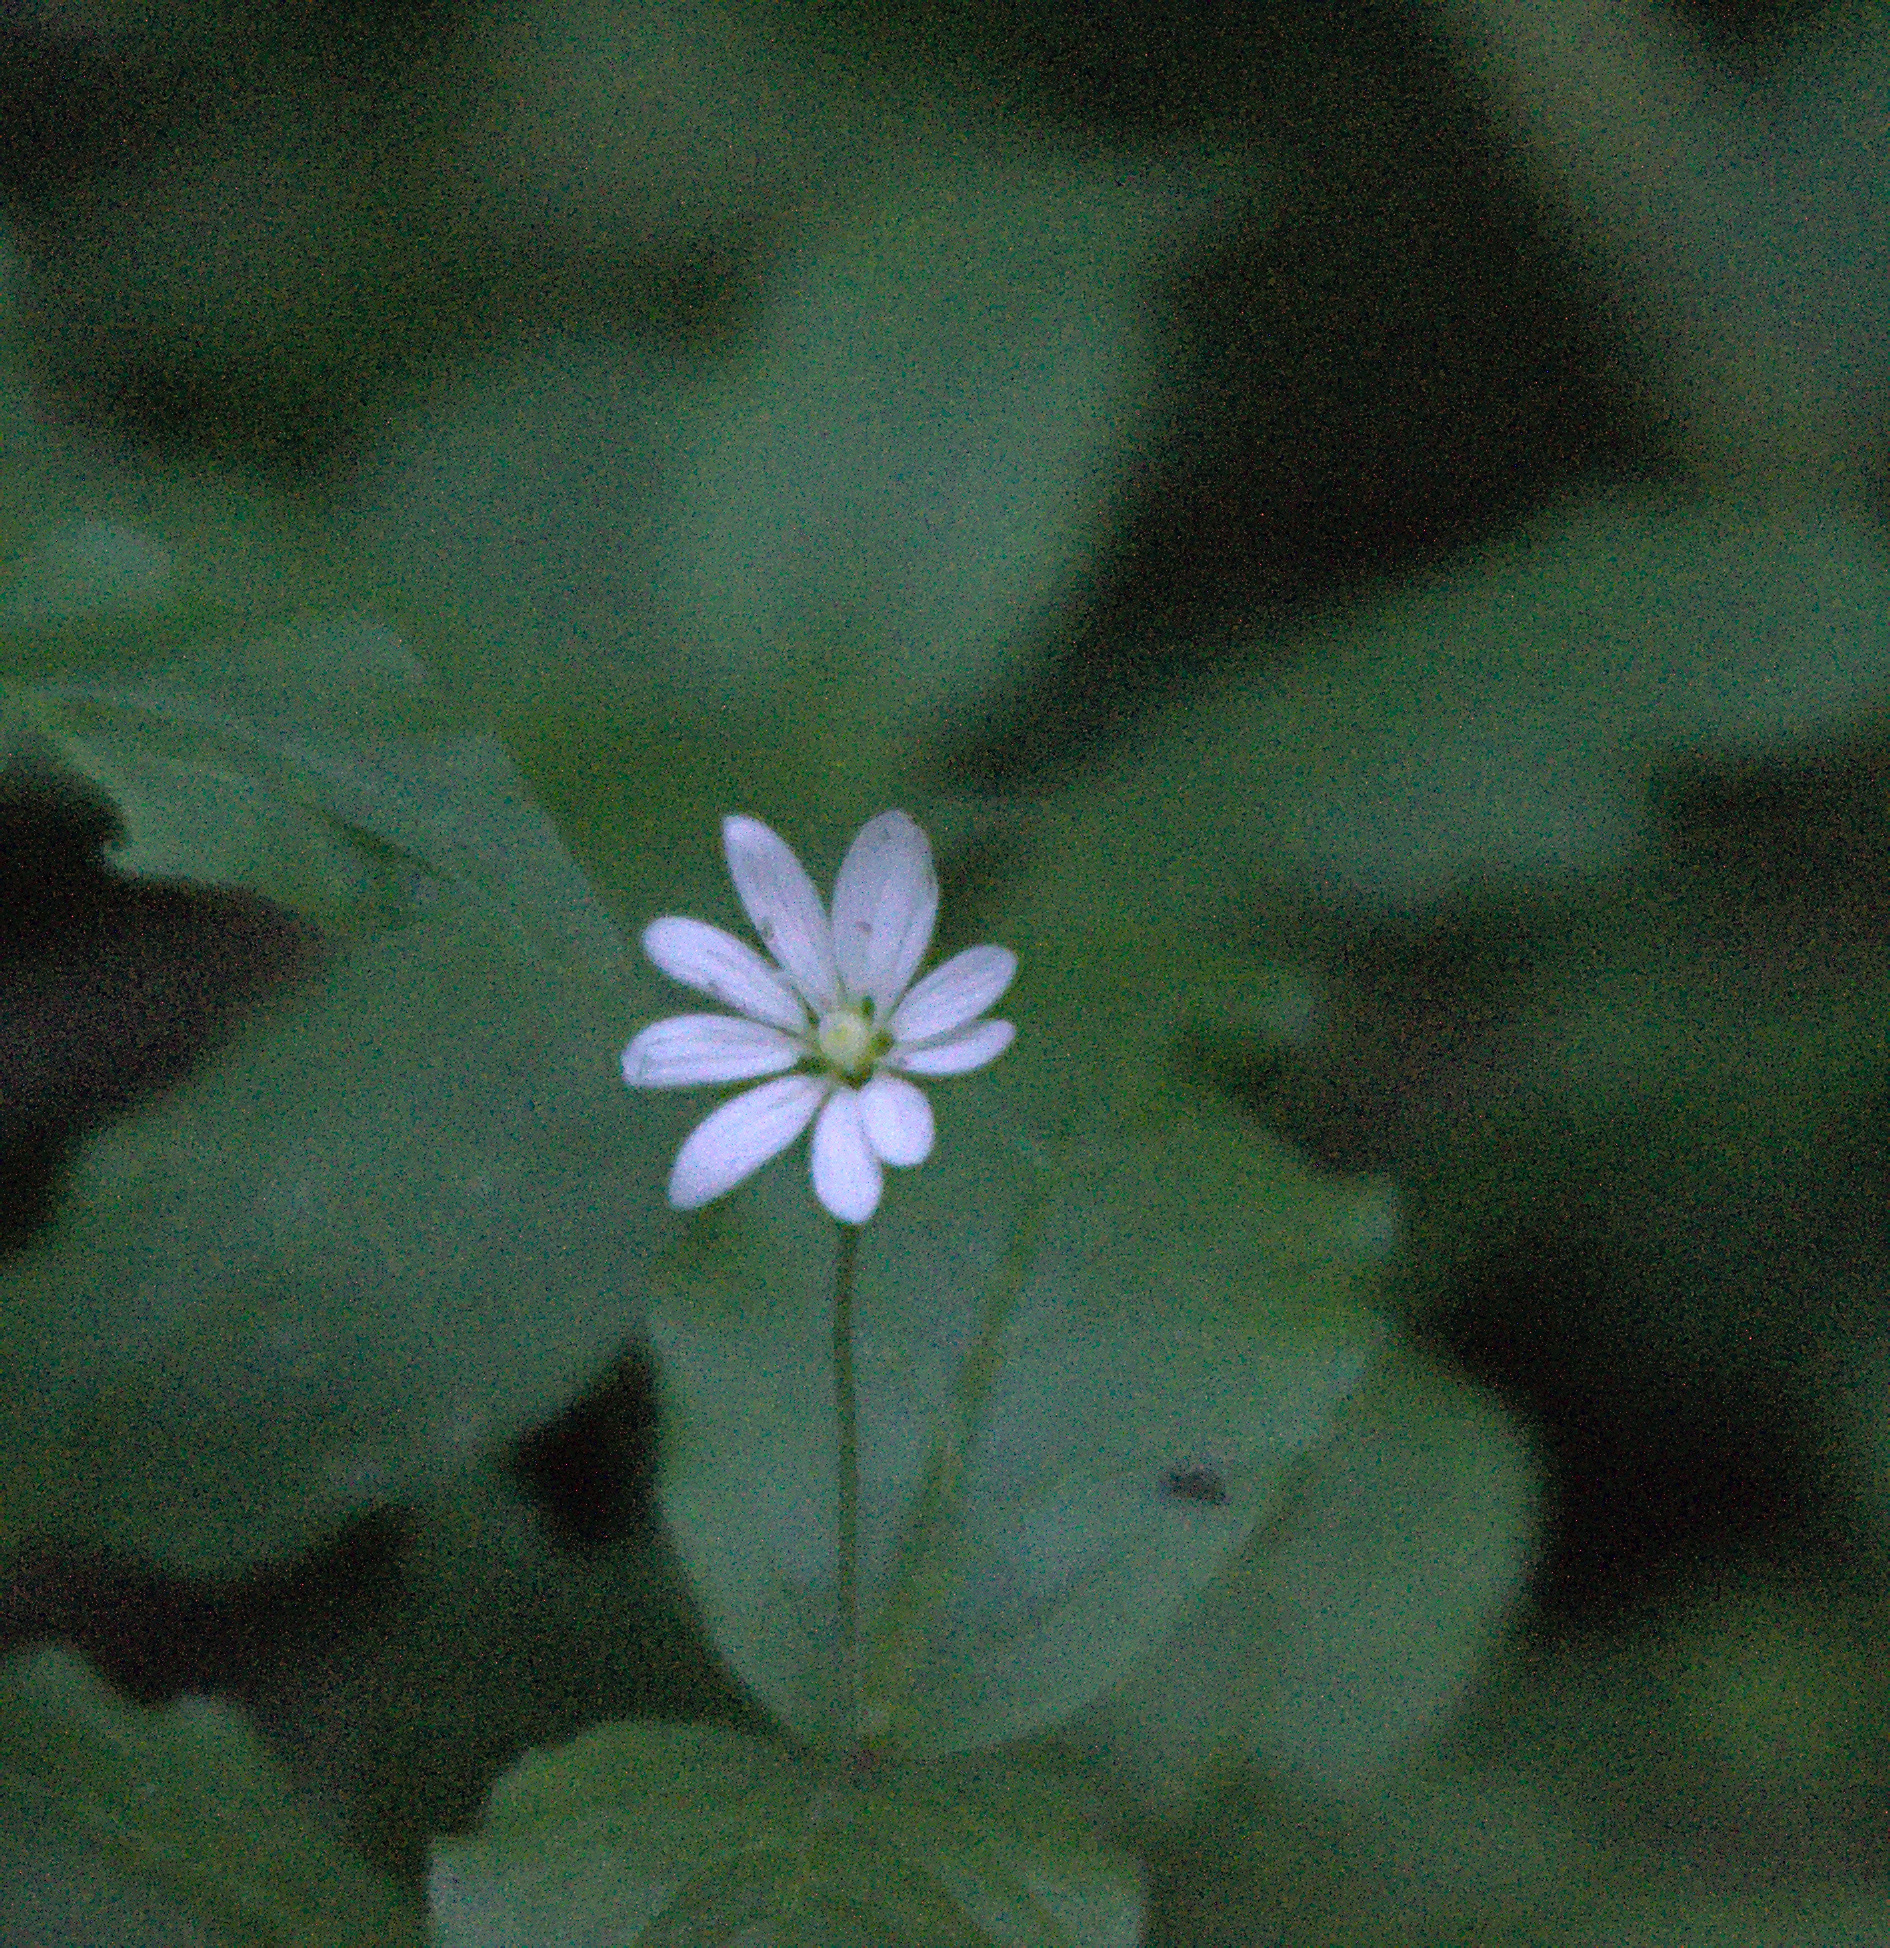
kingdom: Plantae
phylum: Tracheophyta
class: Magnoliopsida
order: Caryophyllales
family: Caryophyllaceae
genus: Stellaria
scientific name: Stellaria bungeana
